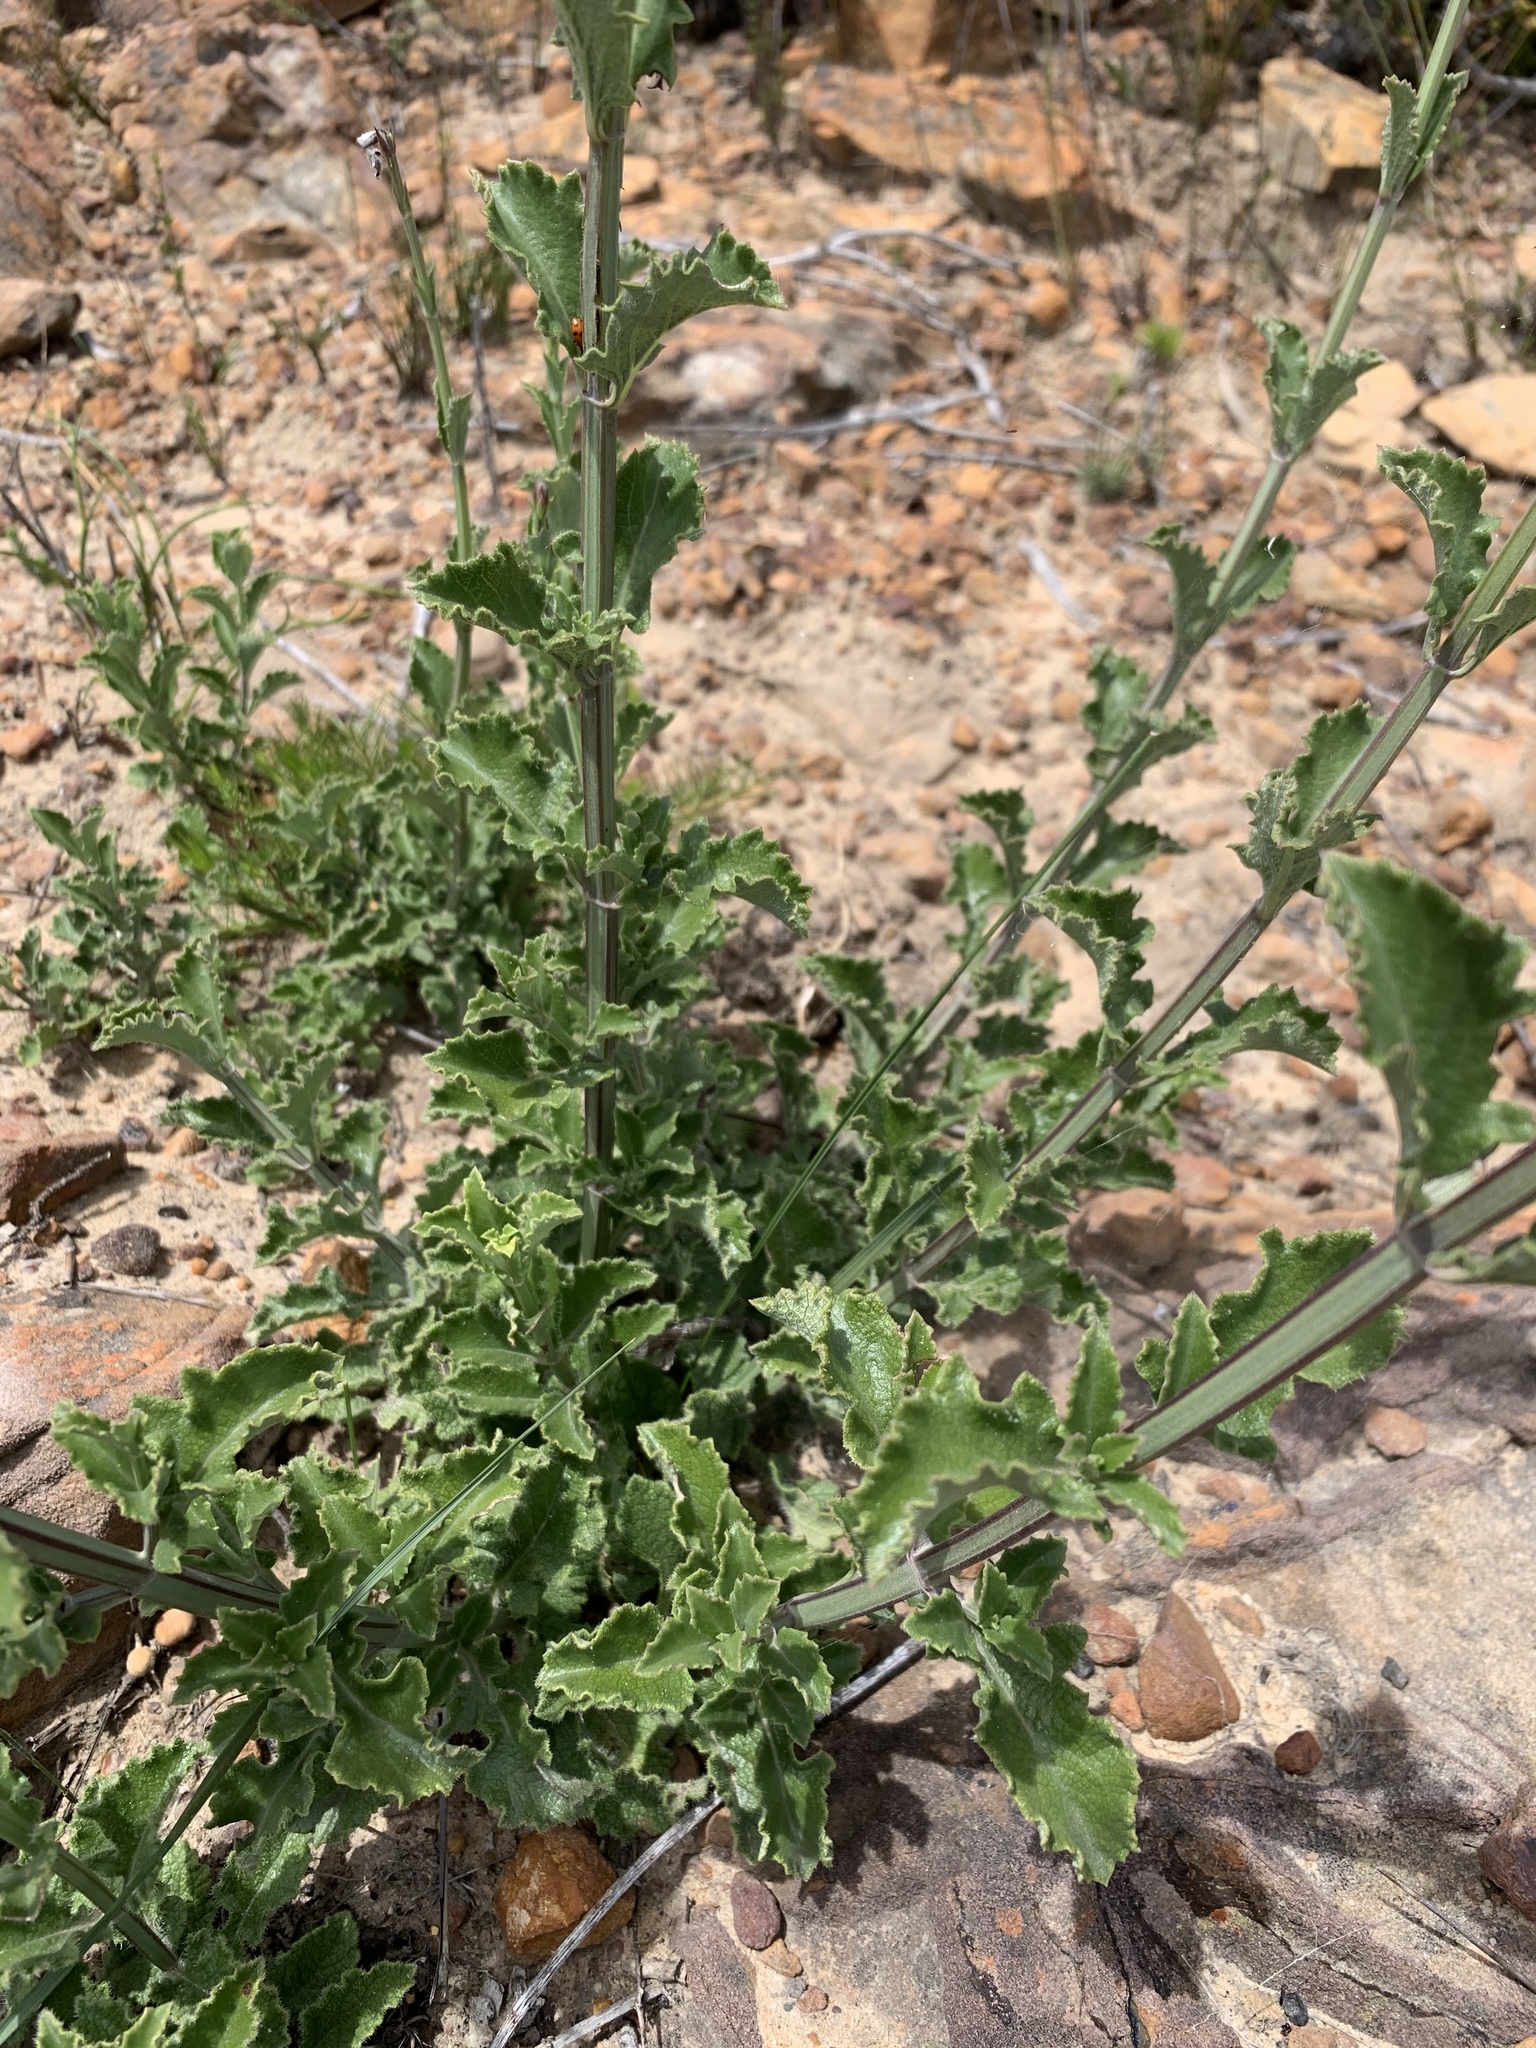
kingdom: Plantae
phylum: Tracheophyta
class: Magnoliopsida
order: Lamiales
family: Lamiaceae
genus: Salvia
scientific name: Salvia albicaulis
